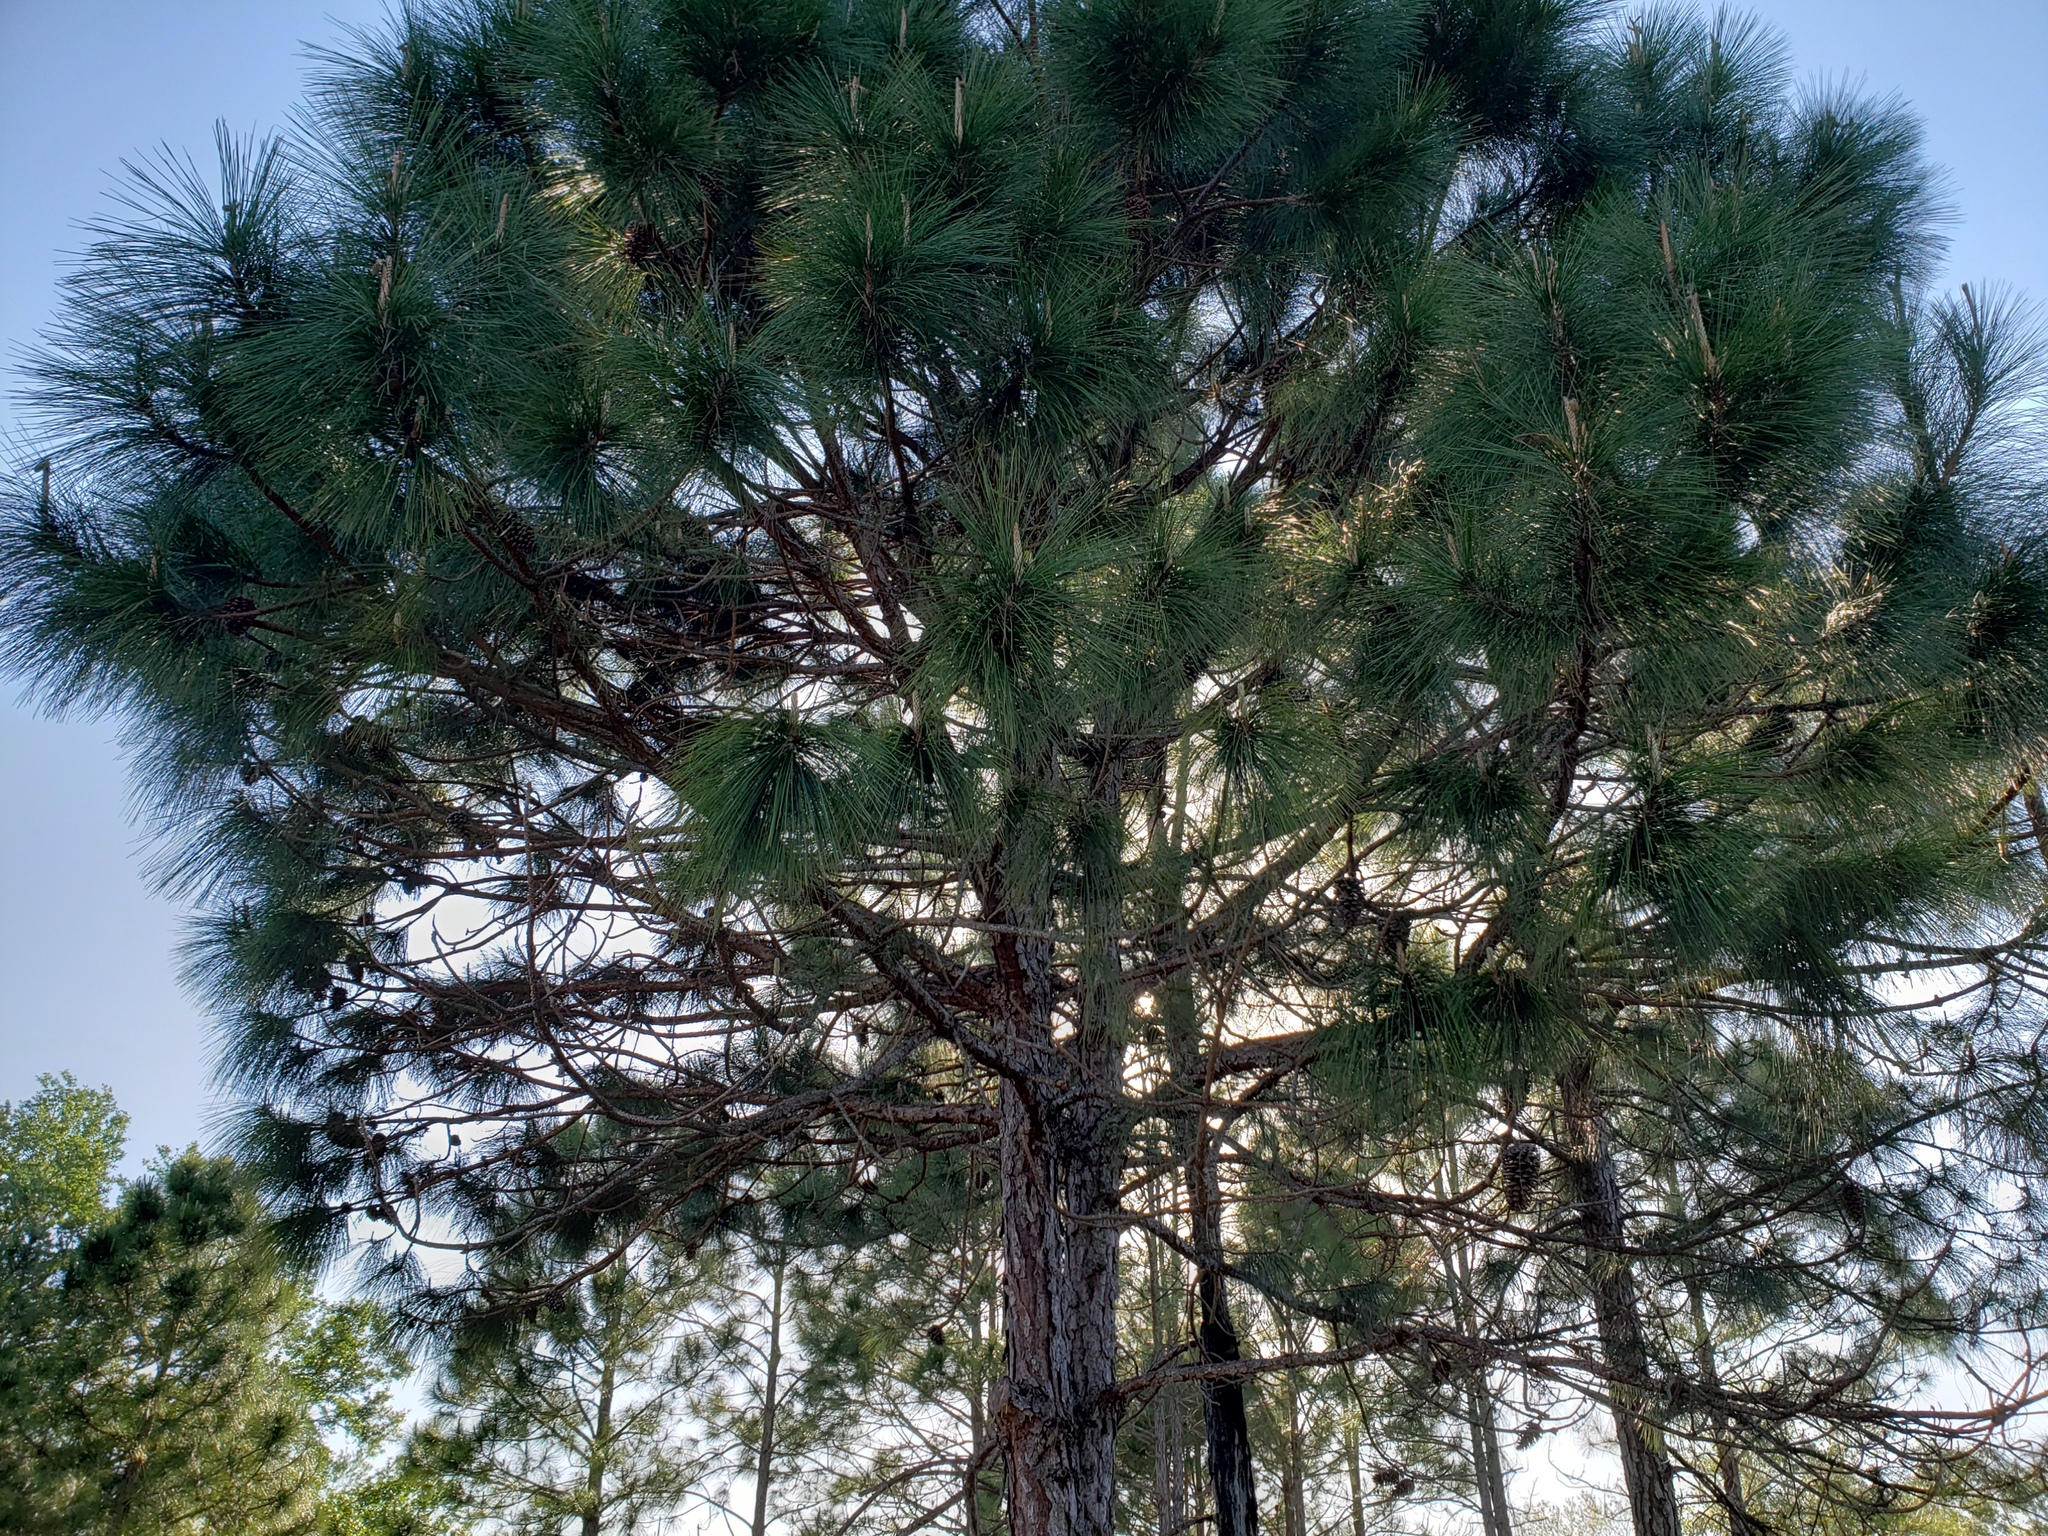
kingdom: Plantae
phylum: Tracheophyta
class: Pinopsida
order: Pinales
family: Pinaceae
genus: Pinus
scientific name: Pinus palustris
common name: Longleaf pine
